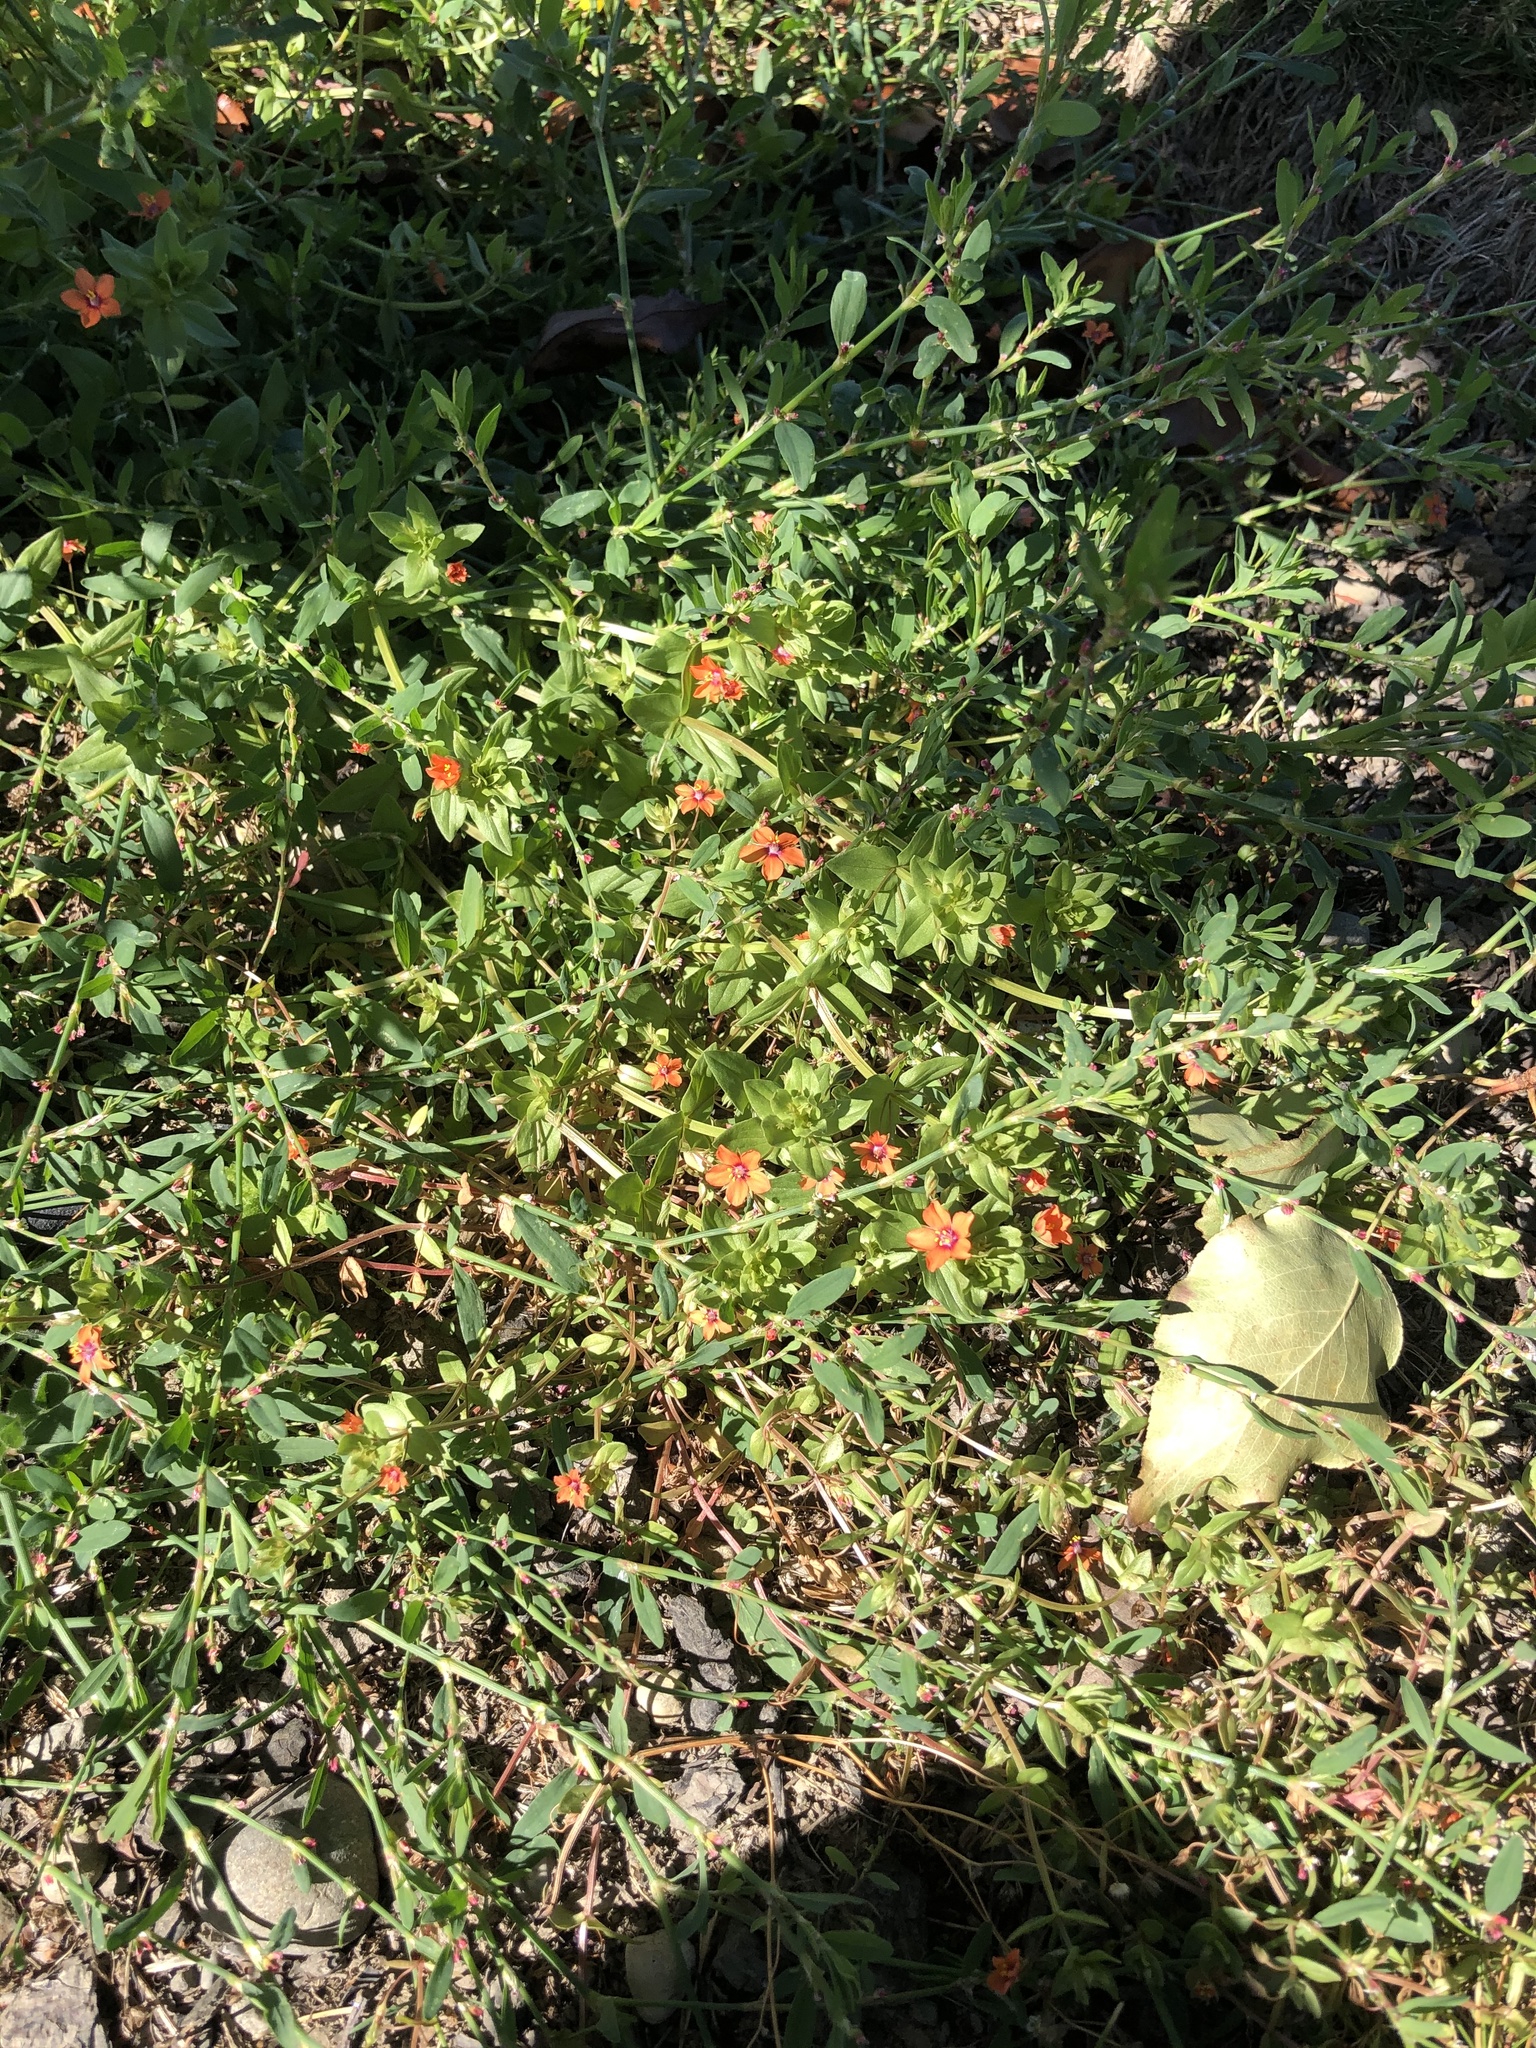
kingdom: Plantae
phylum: Tracheophyta
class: Magnoliopsida
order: Ericales
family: Primulaceae
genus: Lysimachia
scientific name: Lysimachia arvensis
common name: Scarlet pimpernel
